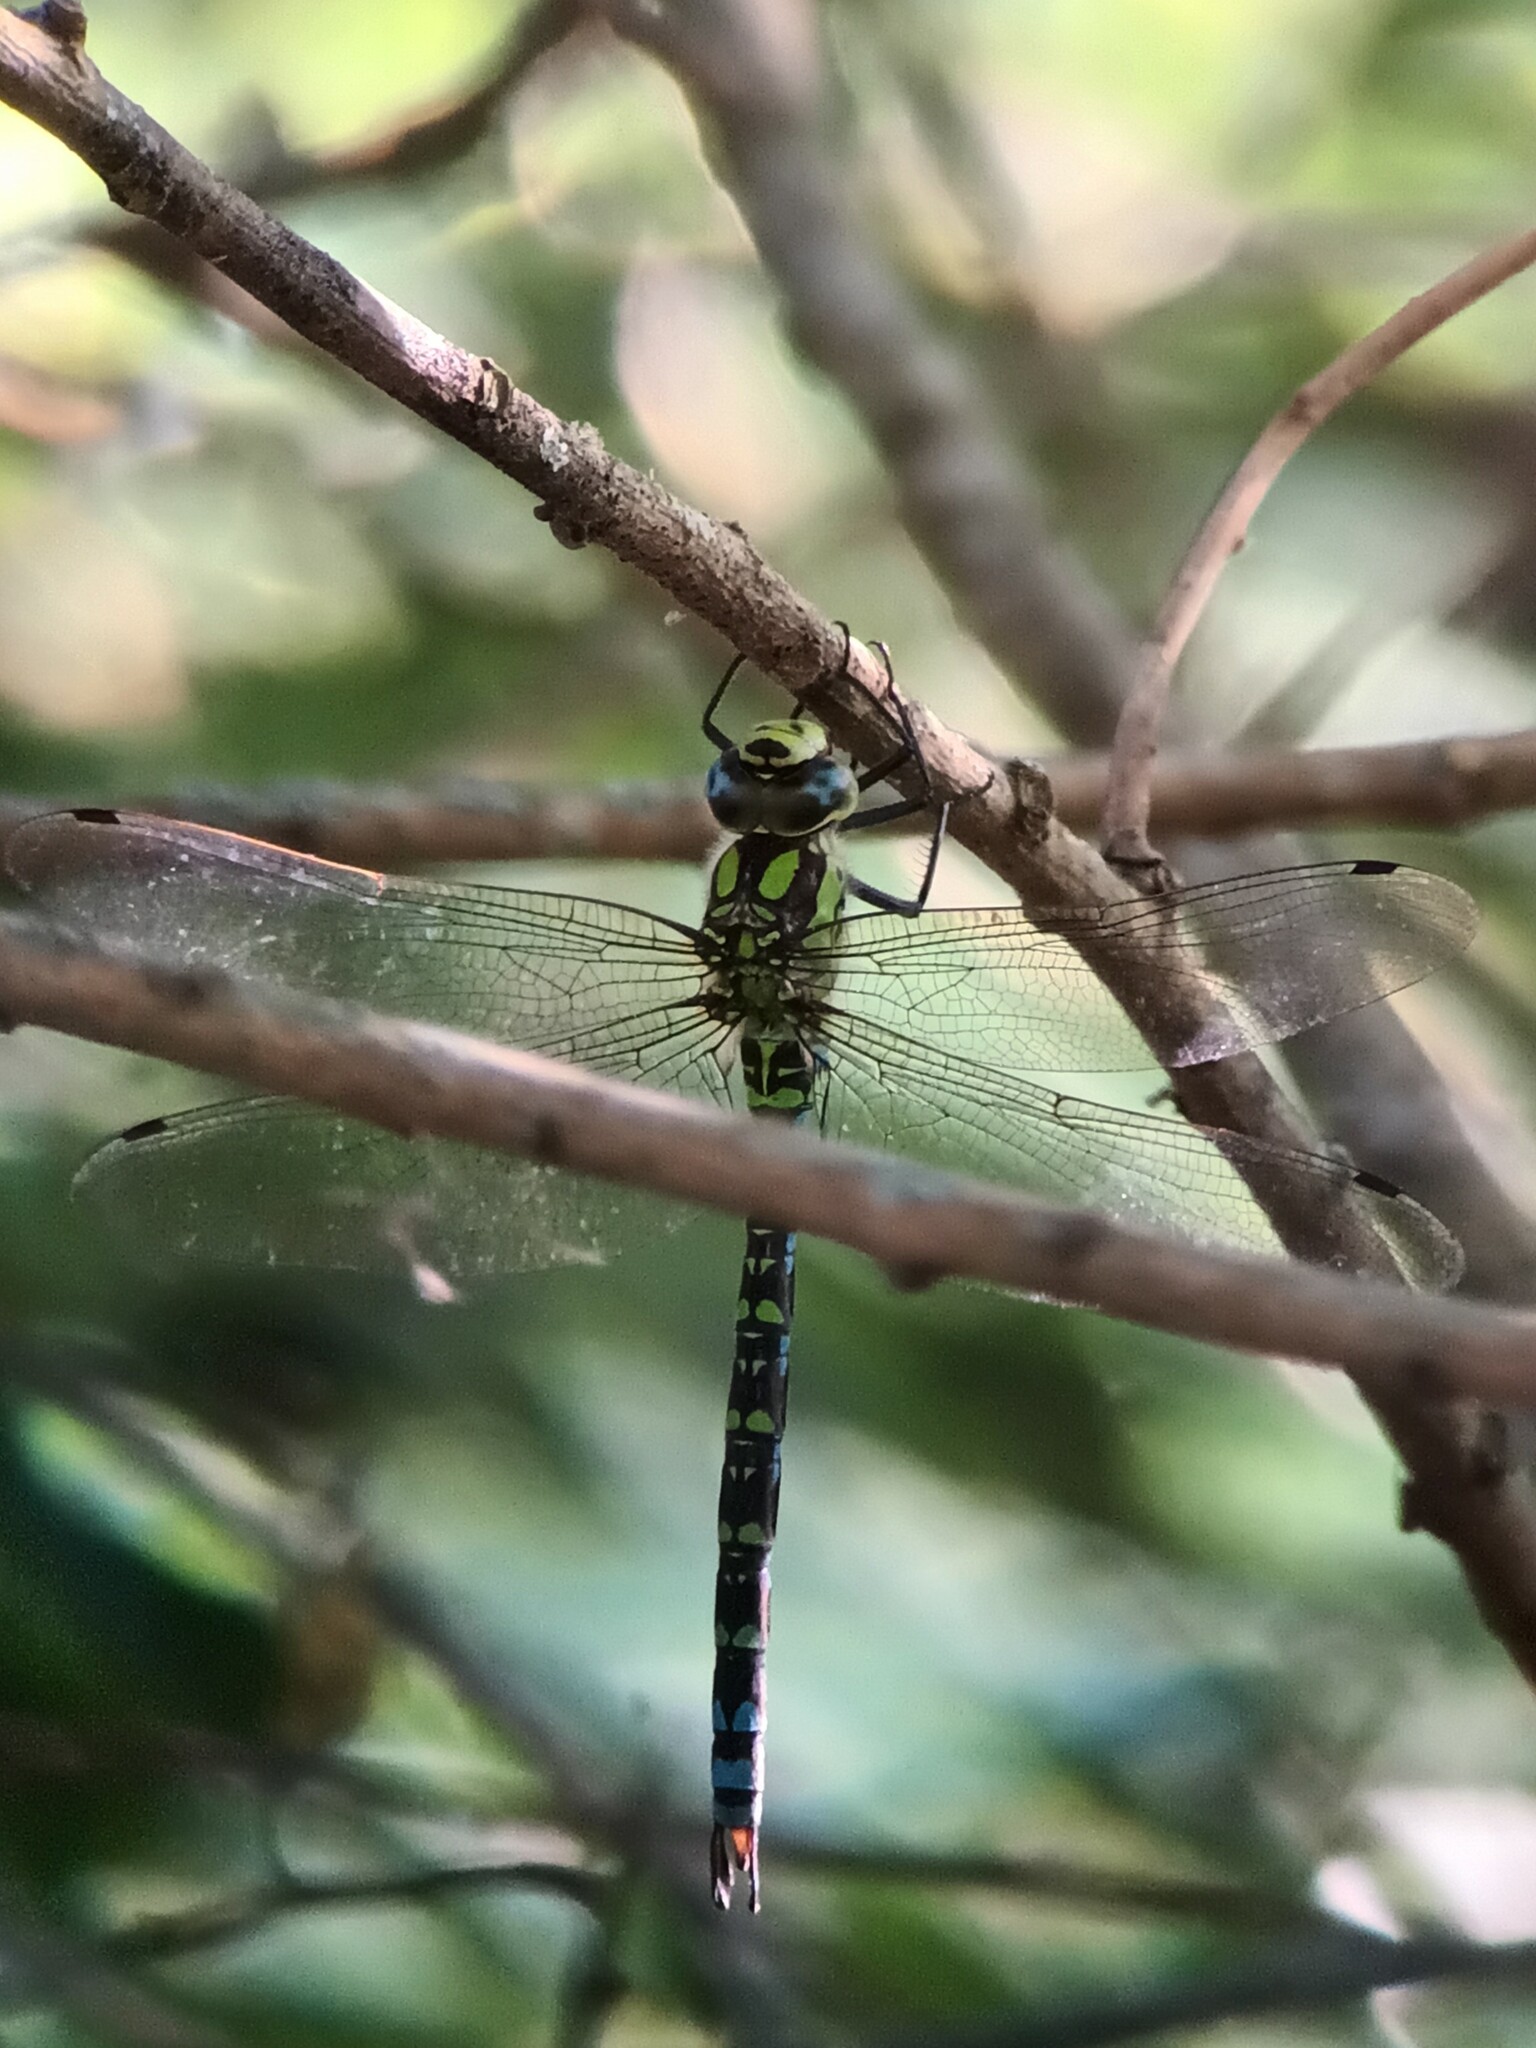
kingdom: Animalia
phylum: Arthropoda
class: Insecta
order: Odonata
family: Aeshnidae
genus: Aeshna
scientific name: Aeshna cyanea
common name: Southern hawker
